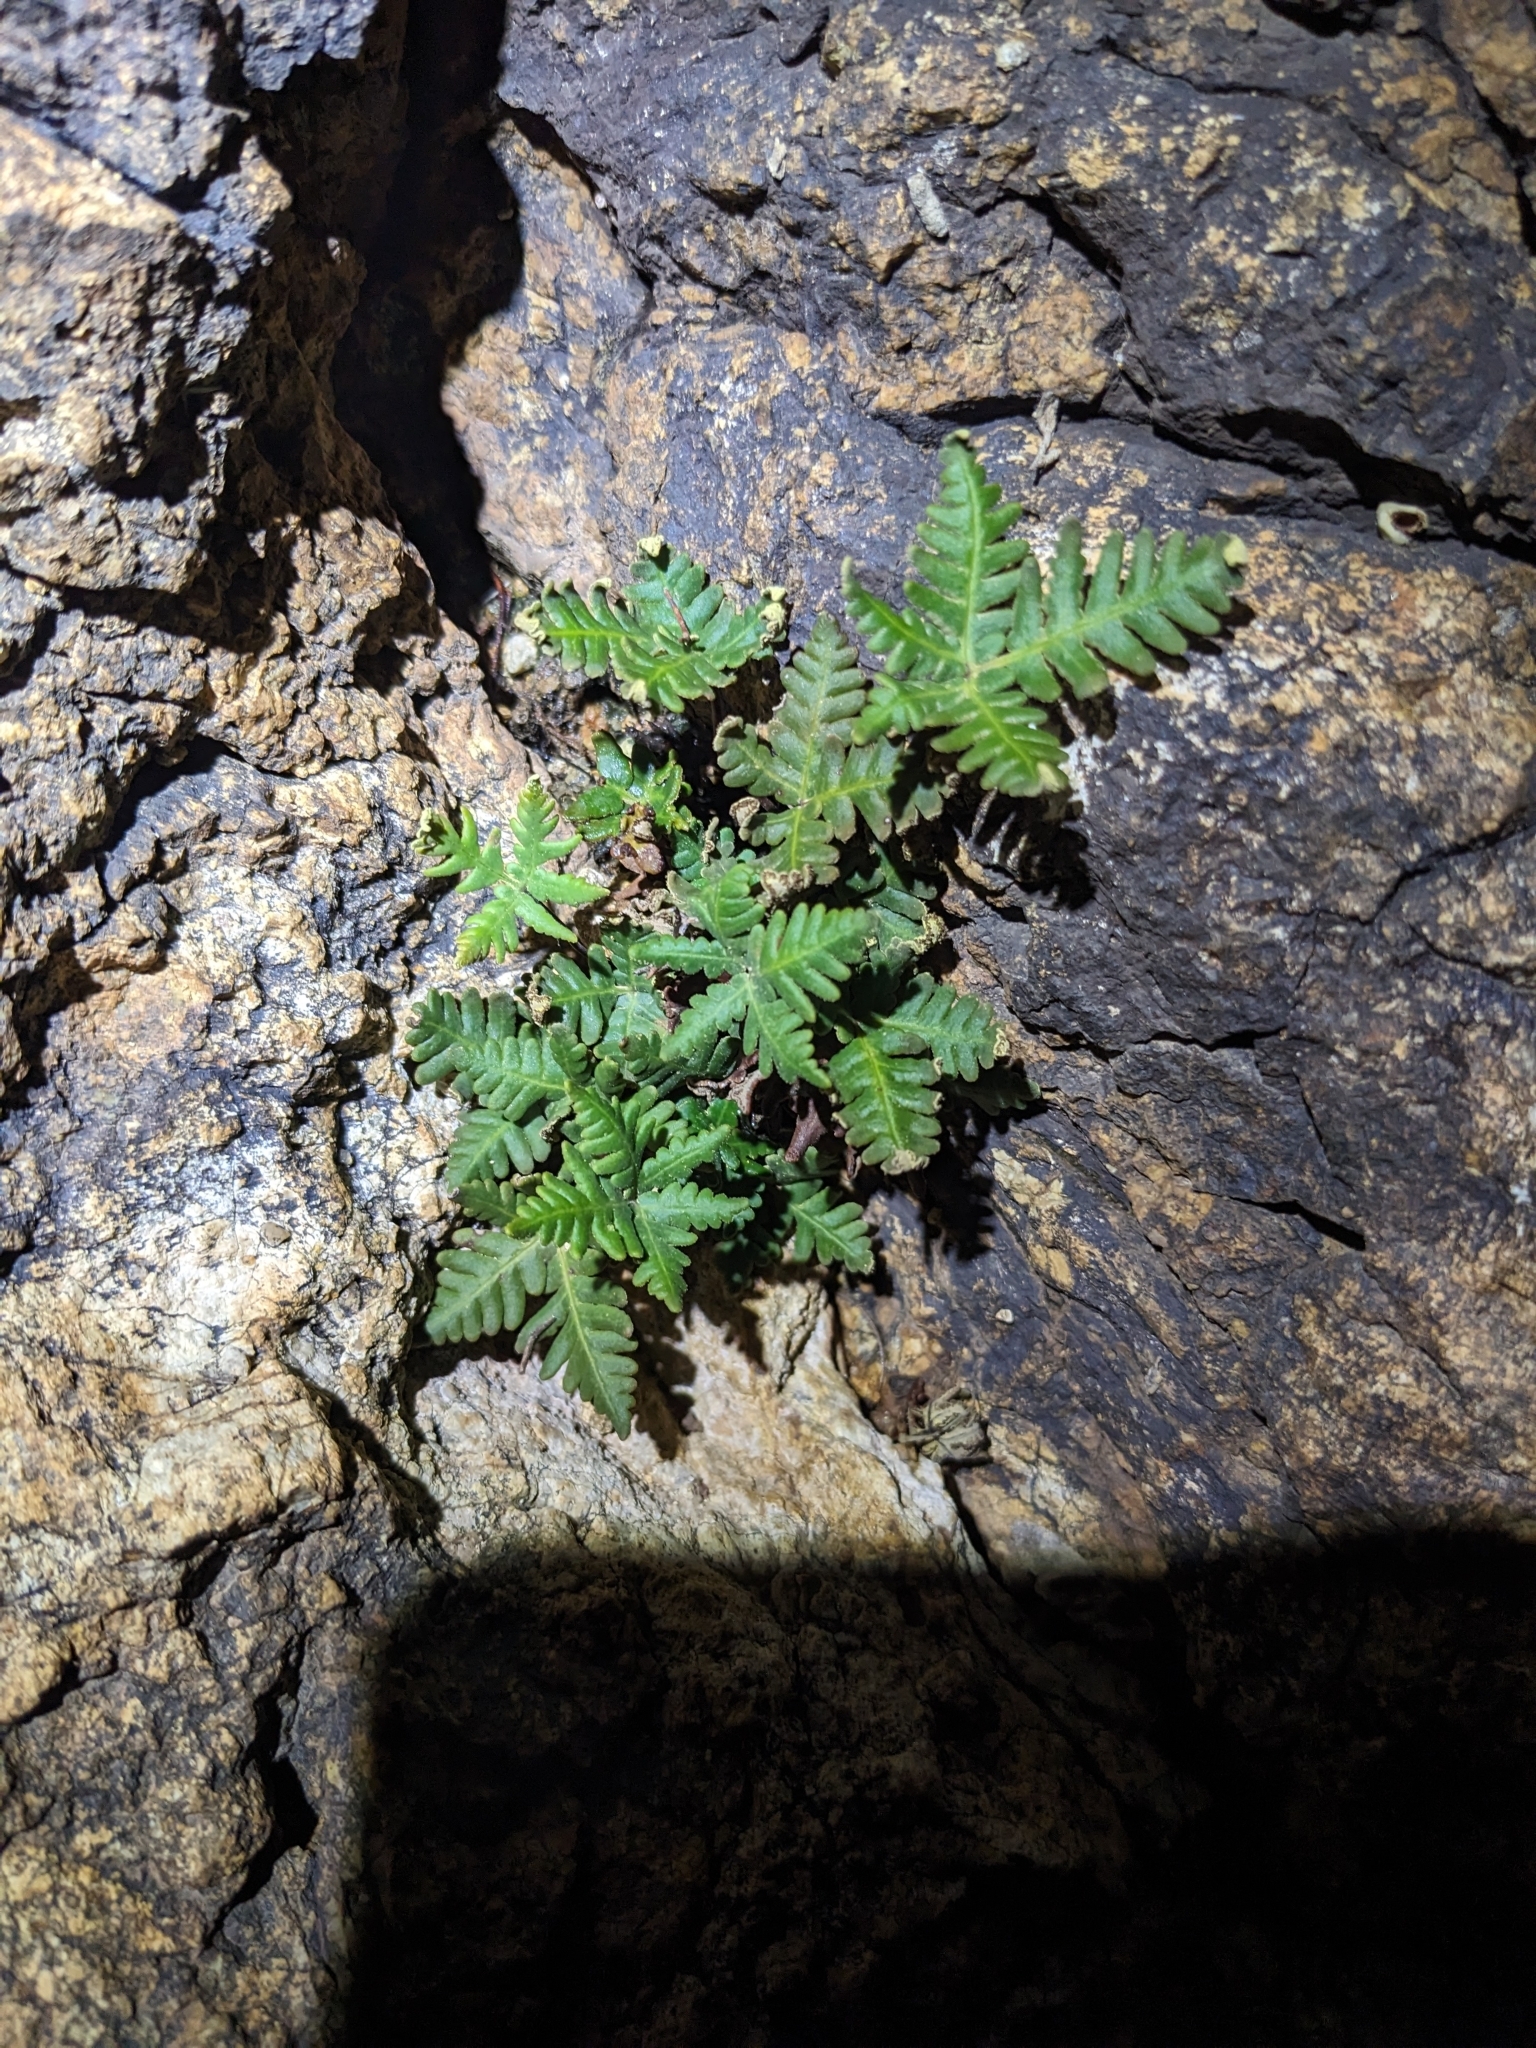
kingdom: Plantae
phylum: Tracheophyta
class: Polypodiopsida
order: Polypodiales
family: Pteridaceae
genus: Notholaena
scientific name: Notholaena standleyi
